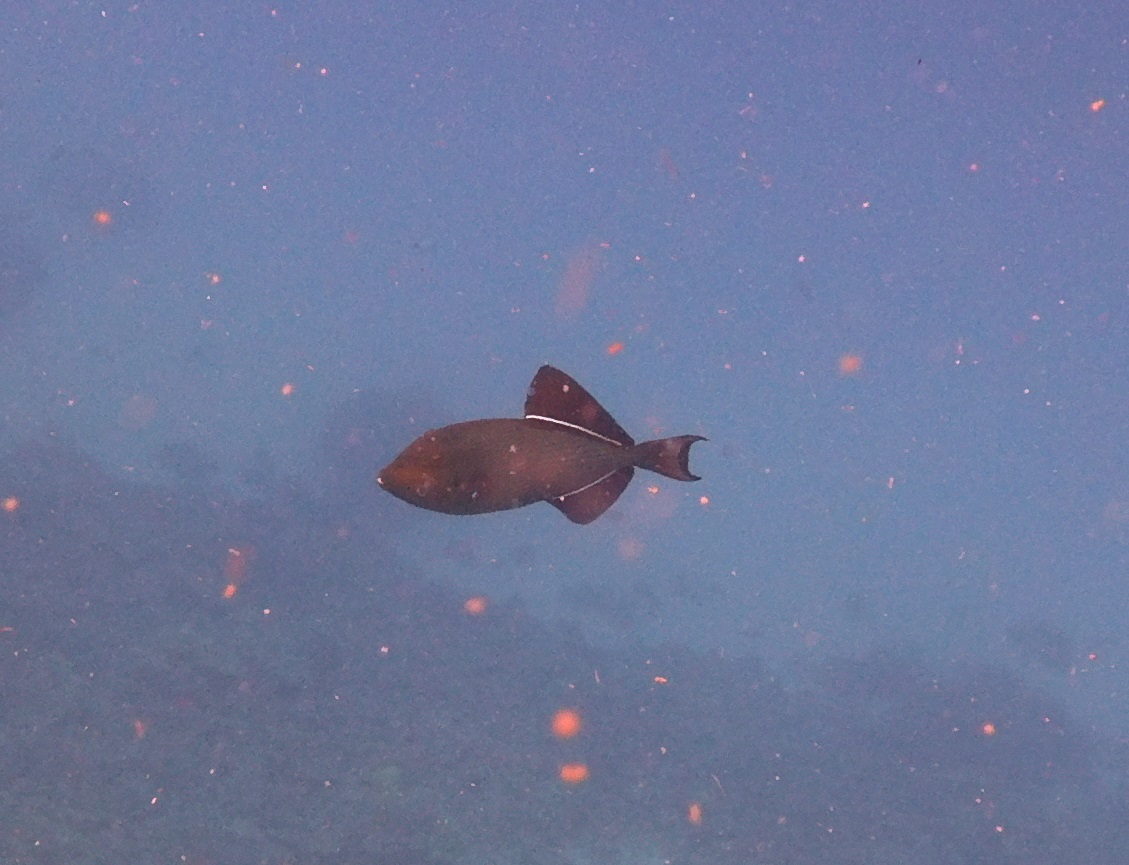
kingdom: Animalia
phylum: Chordata
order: Tetraodontiformes
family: Balistidae
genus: Melichthys
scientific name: Melichthys niger
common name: Black durgon
